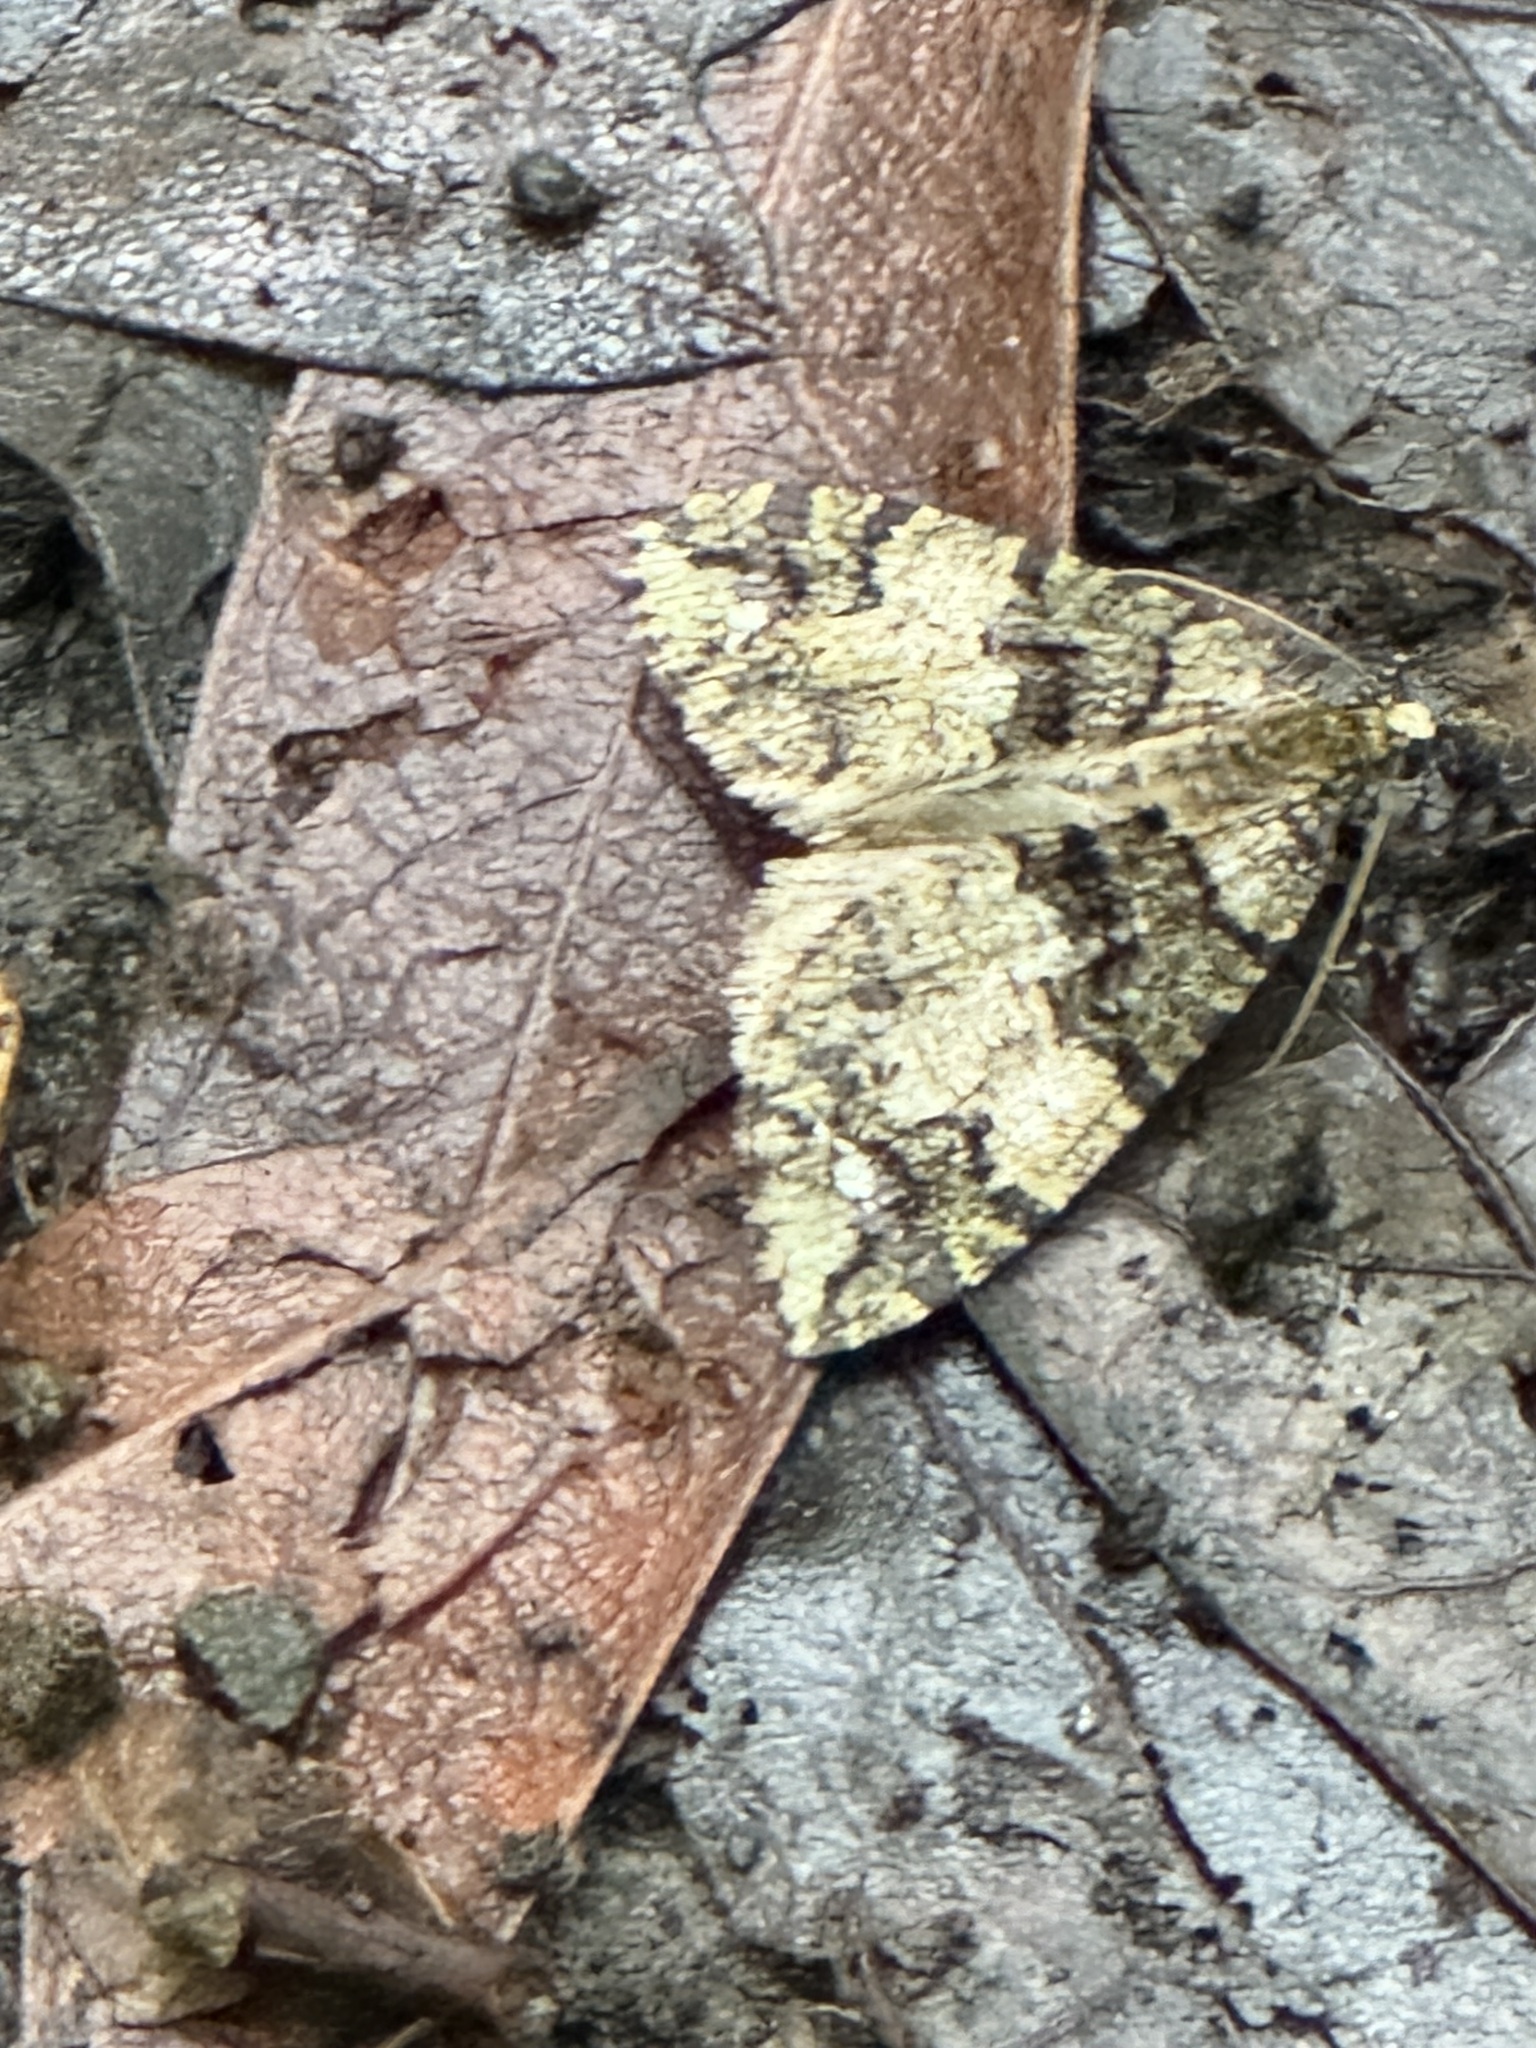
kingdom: Animalia
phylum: Arthropoda
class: Insecta
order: Lepidoptera
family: Geometridae
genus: Hydriomena
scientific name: Hydriomena albifasciata
